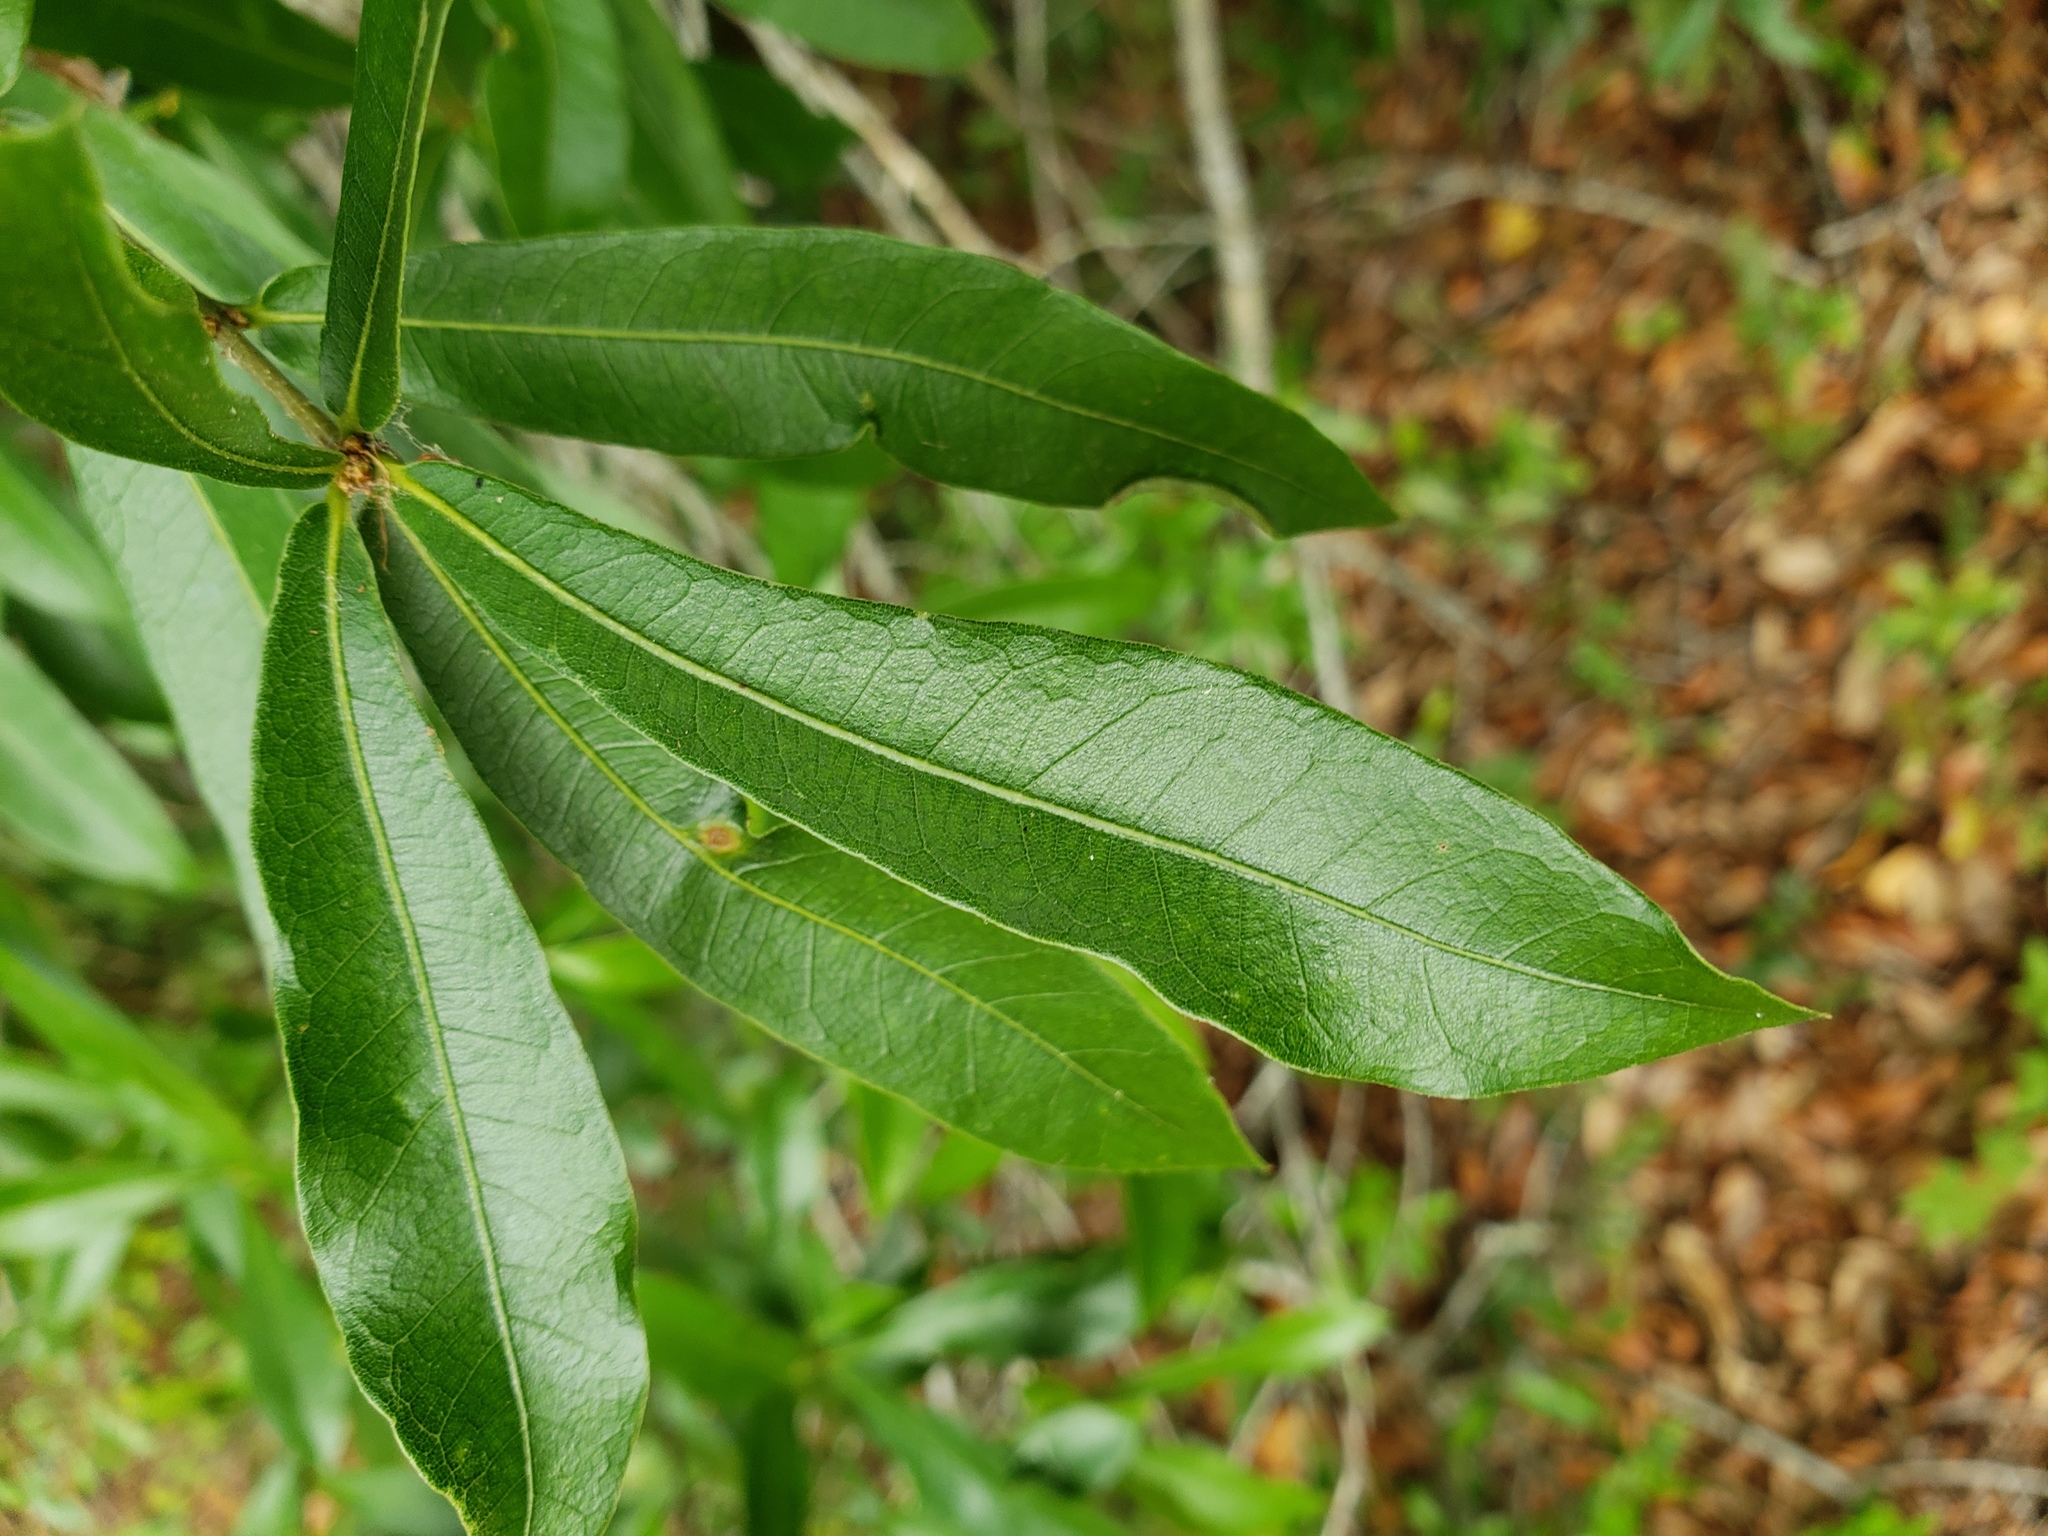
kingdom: Plantae
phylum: Tracheophyta
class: Magnoliopsida
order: Fagales
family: Fagaceae
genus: Quercus
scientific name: Quercus laurifolia
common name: Swamp laurel oak
